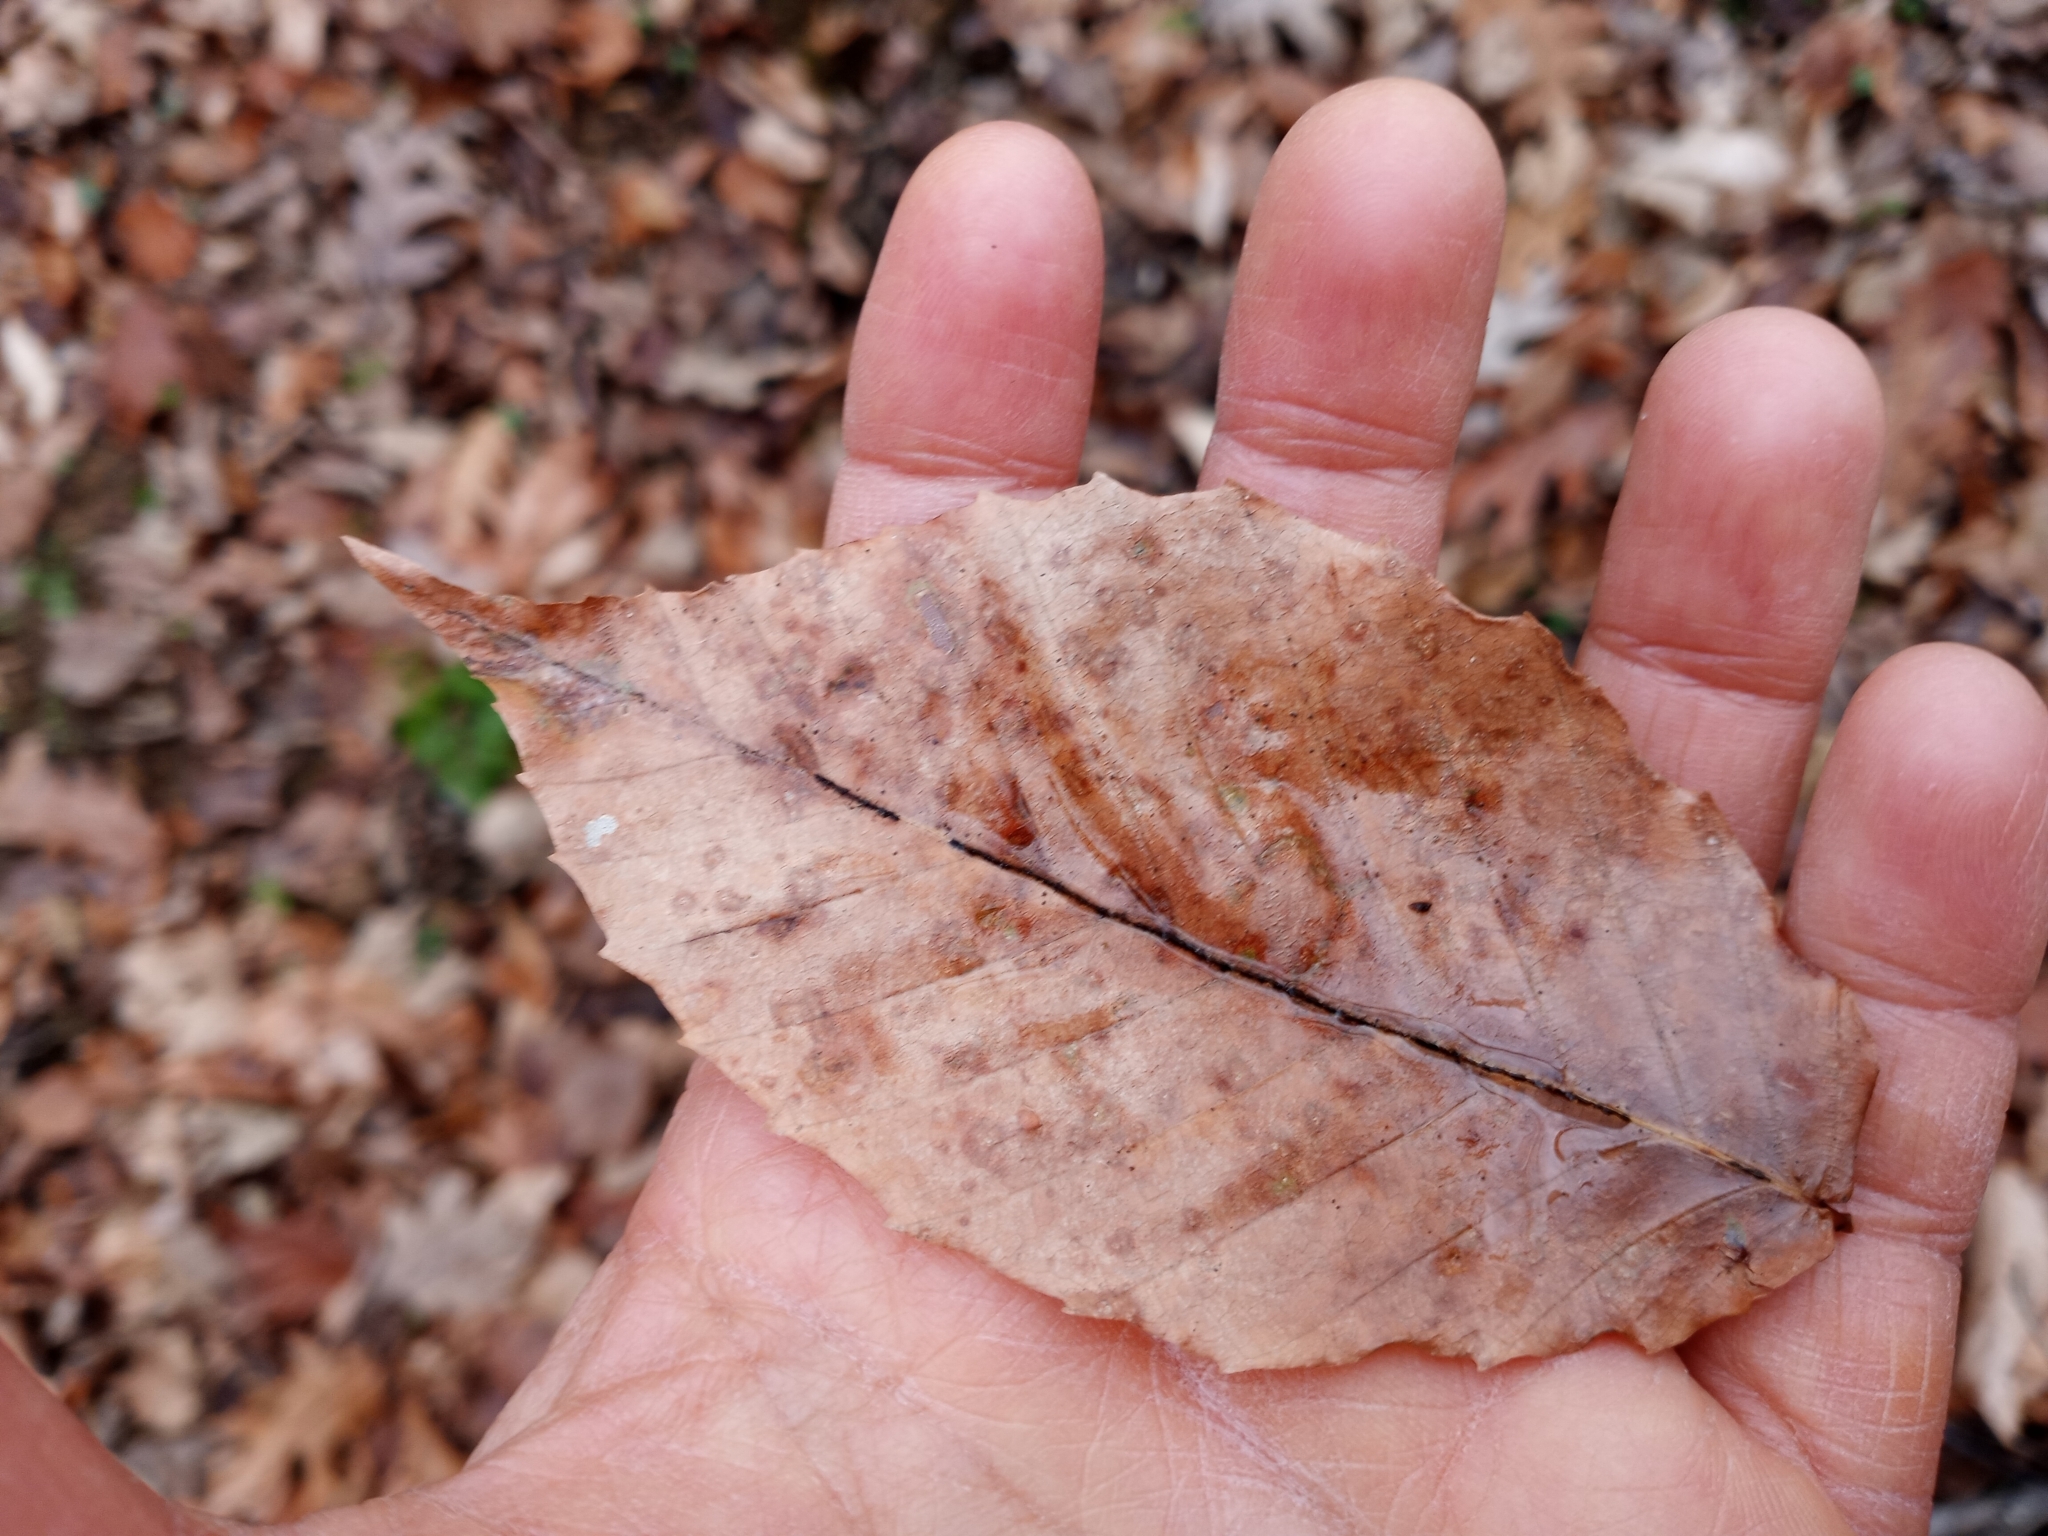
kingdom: Plantae
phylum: Tracheophyta
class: Magnoliopsida
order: Fagales
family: Fagaceae
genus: Fagus
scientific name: Fagus grandifolia
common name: American beech
